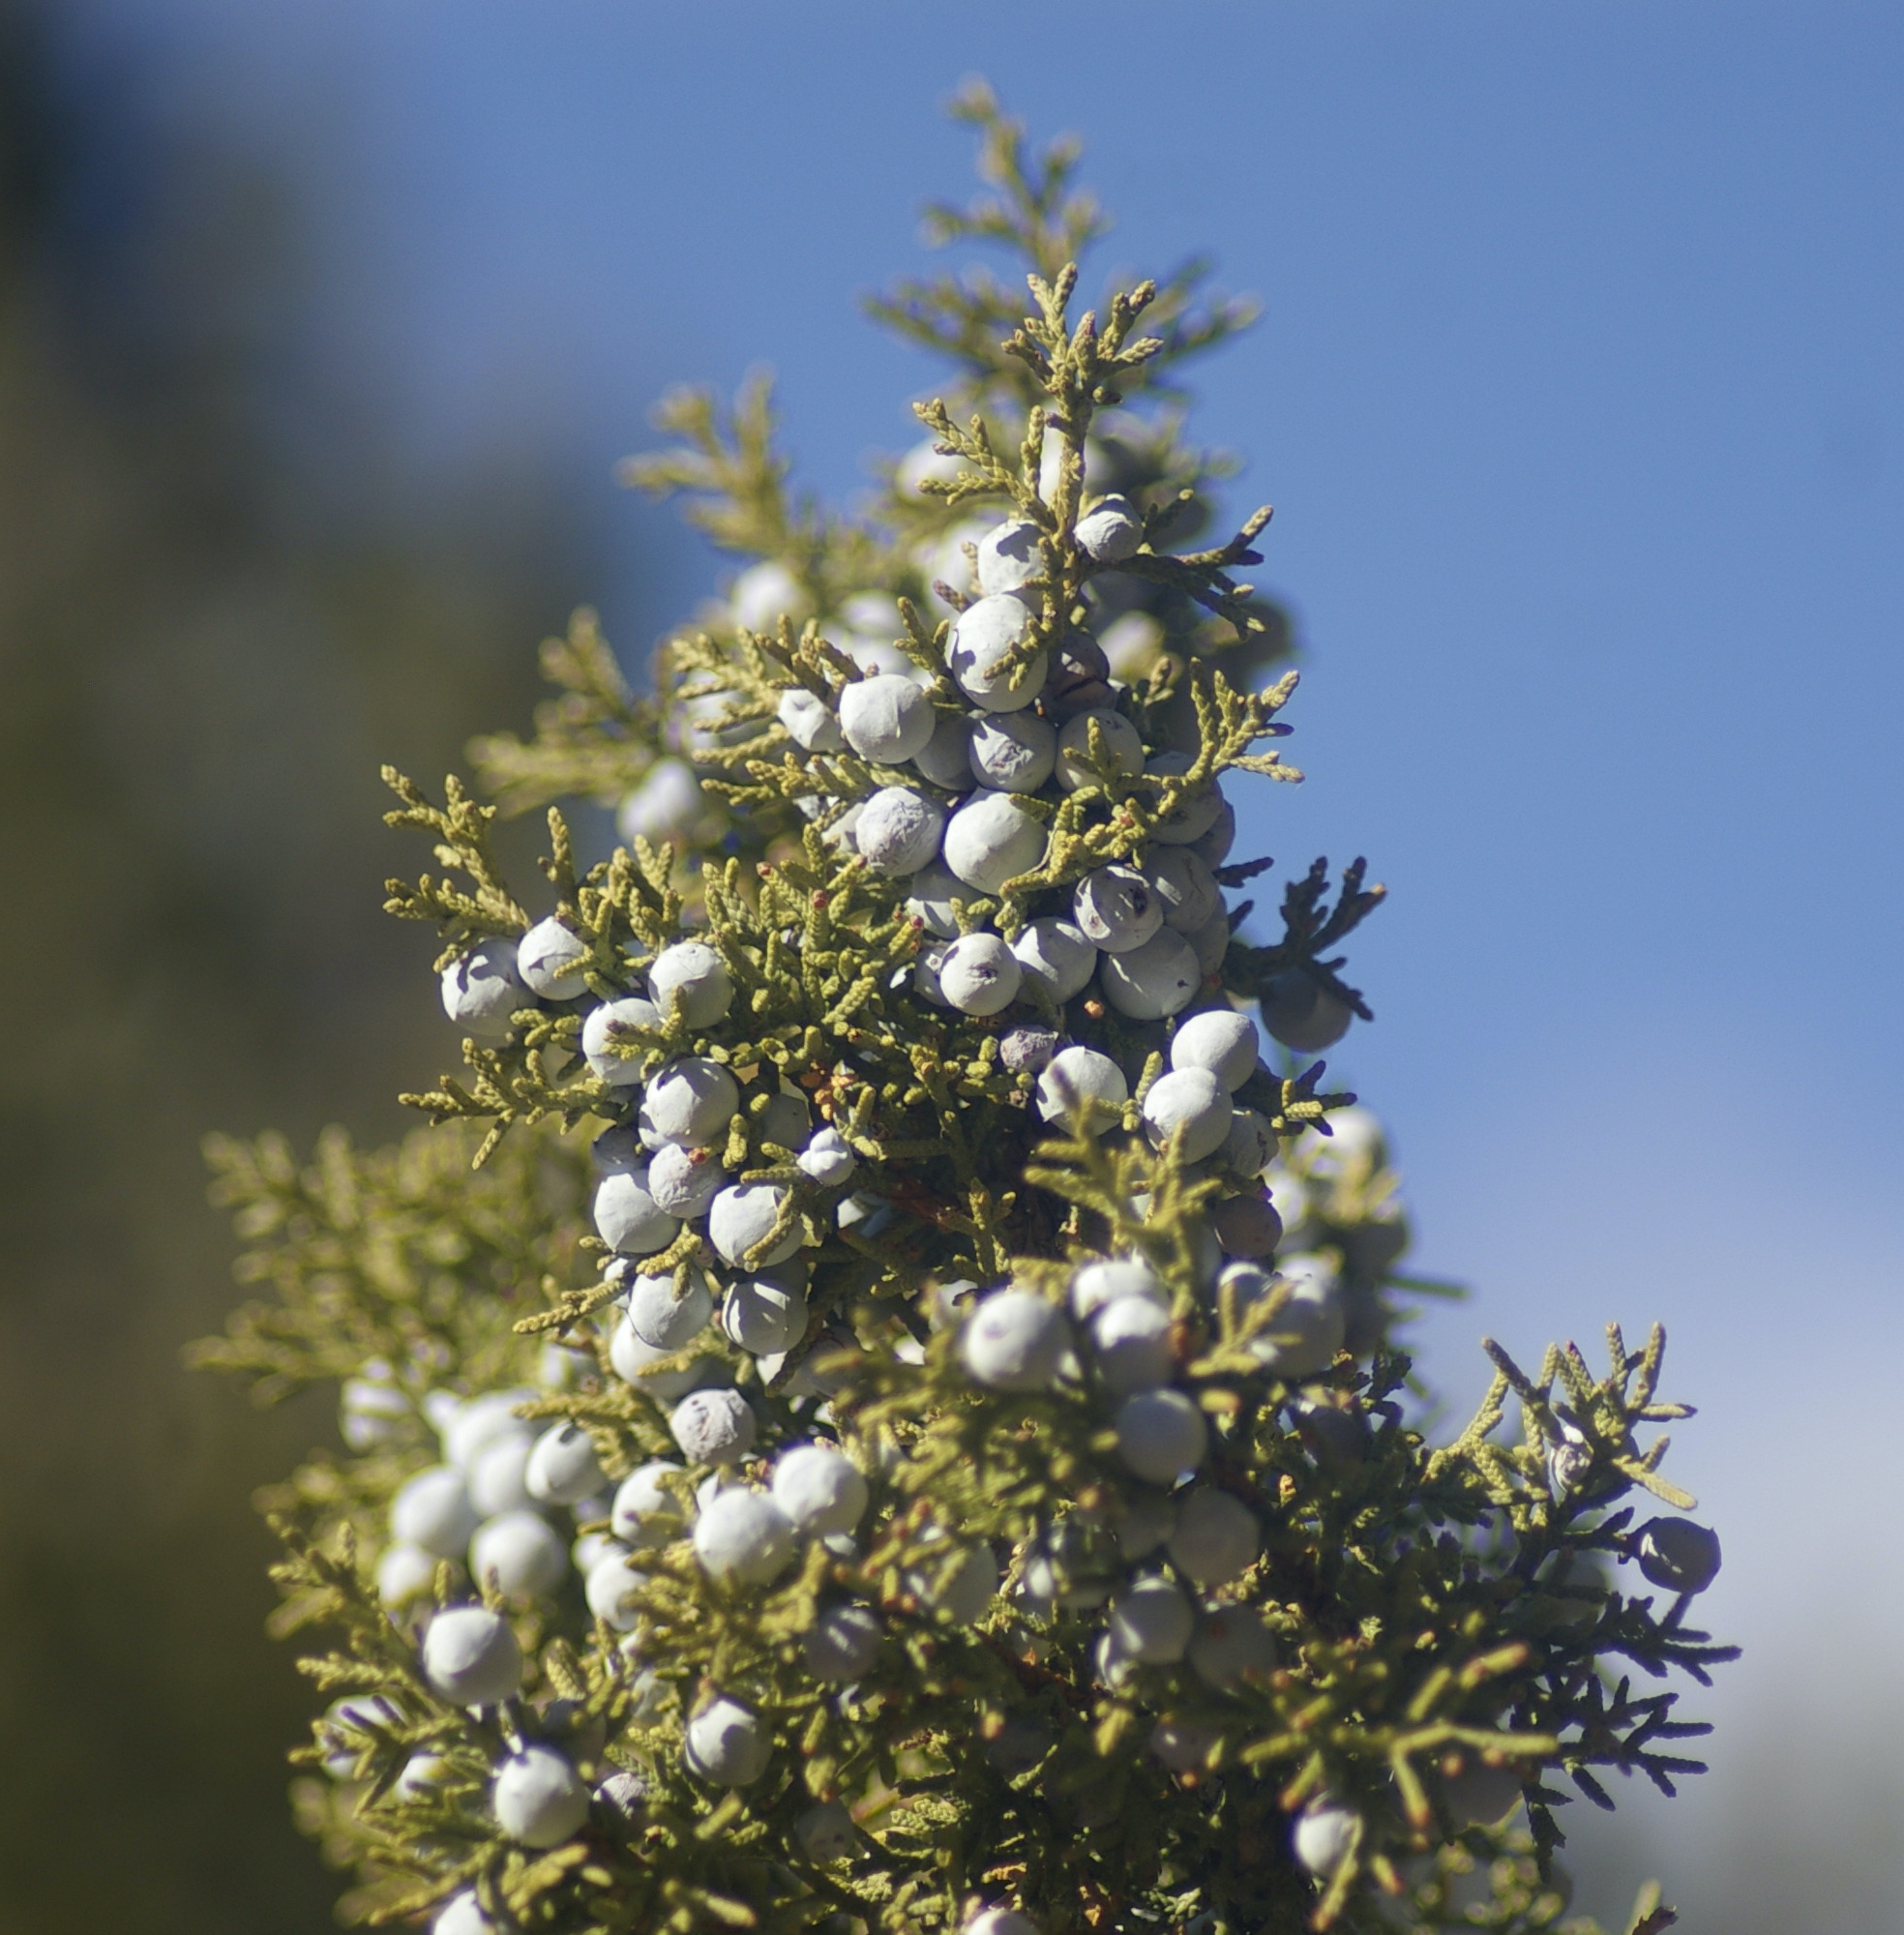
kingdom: Plantae
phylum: Tracheophyta
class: Pinopsida
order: Pinales
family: Cupressaceae
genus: Juniperus
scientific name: Juniperus osteosperma
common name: Utah juniper
